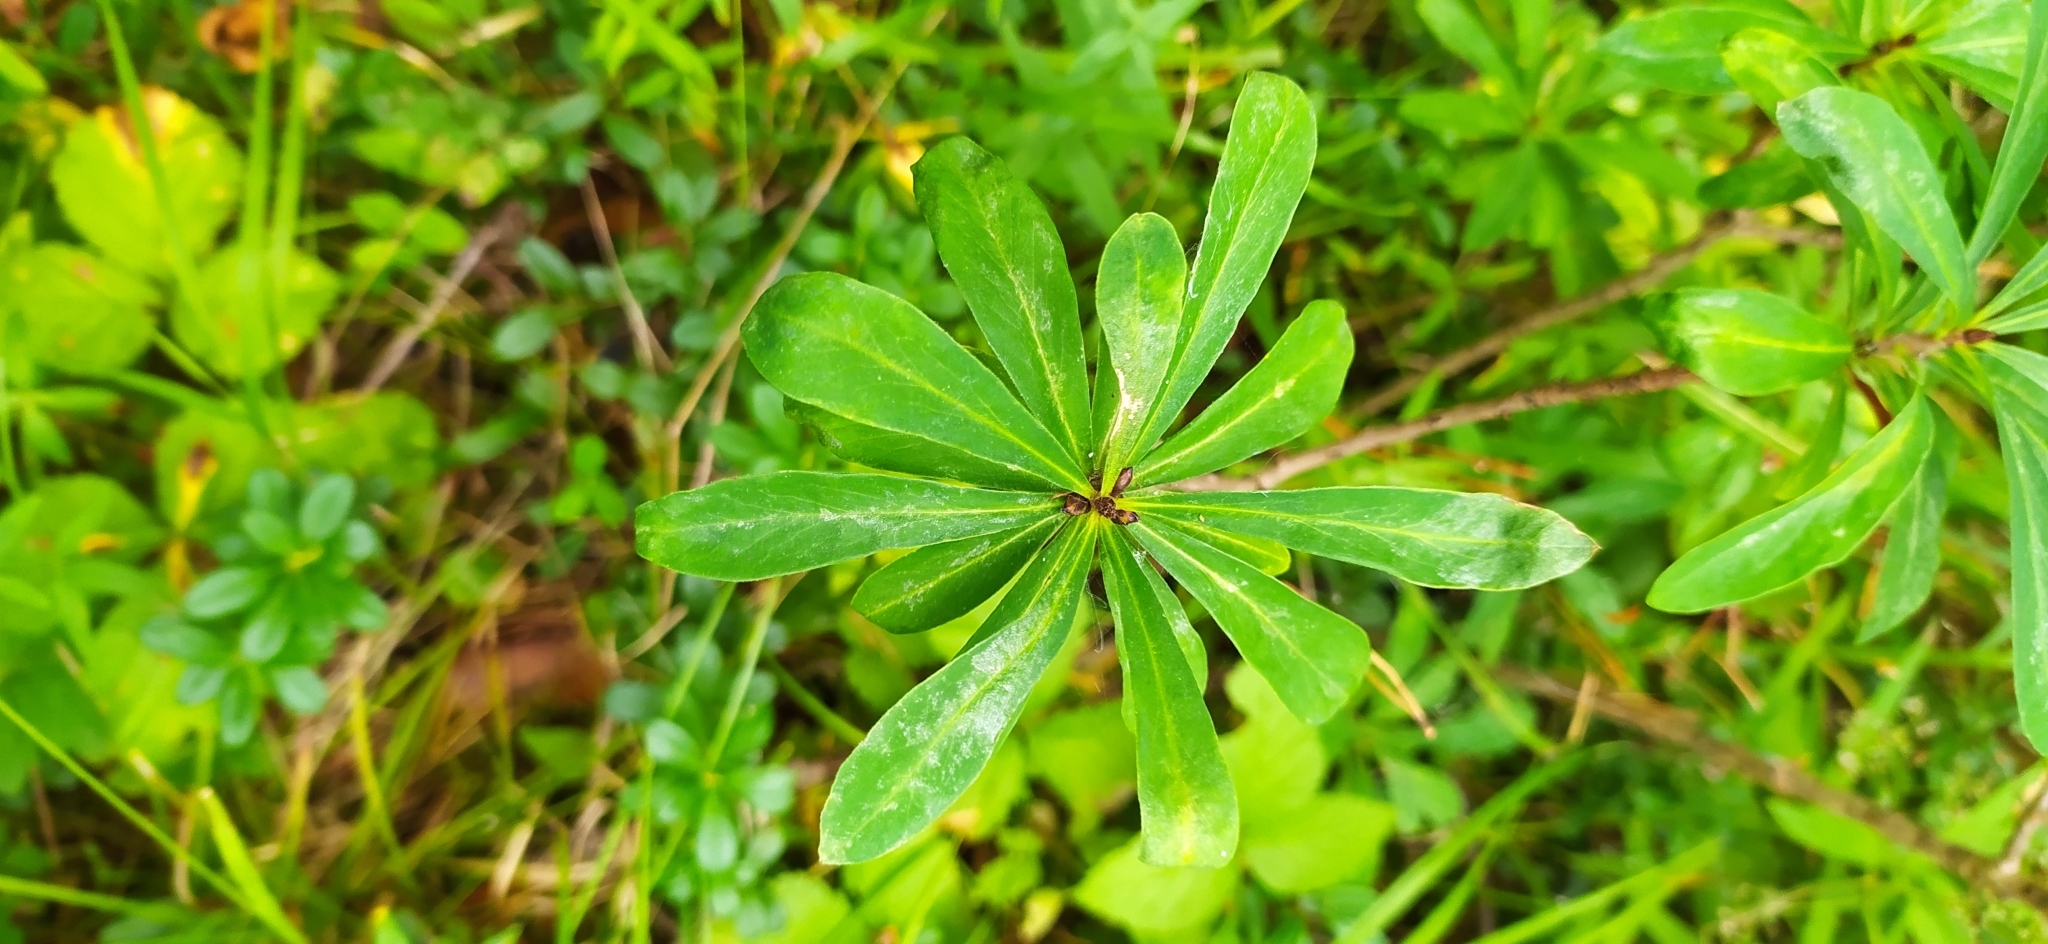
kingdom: Plantae
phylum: Tracheophyta
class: Magnoliopsida
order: Malvales
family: Thymelaeaceae
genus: Daphne
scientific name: Daphne mezereum
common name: Mezereon
